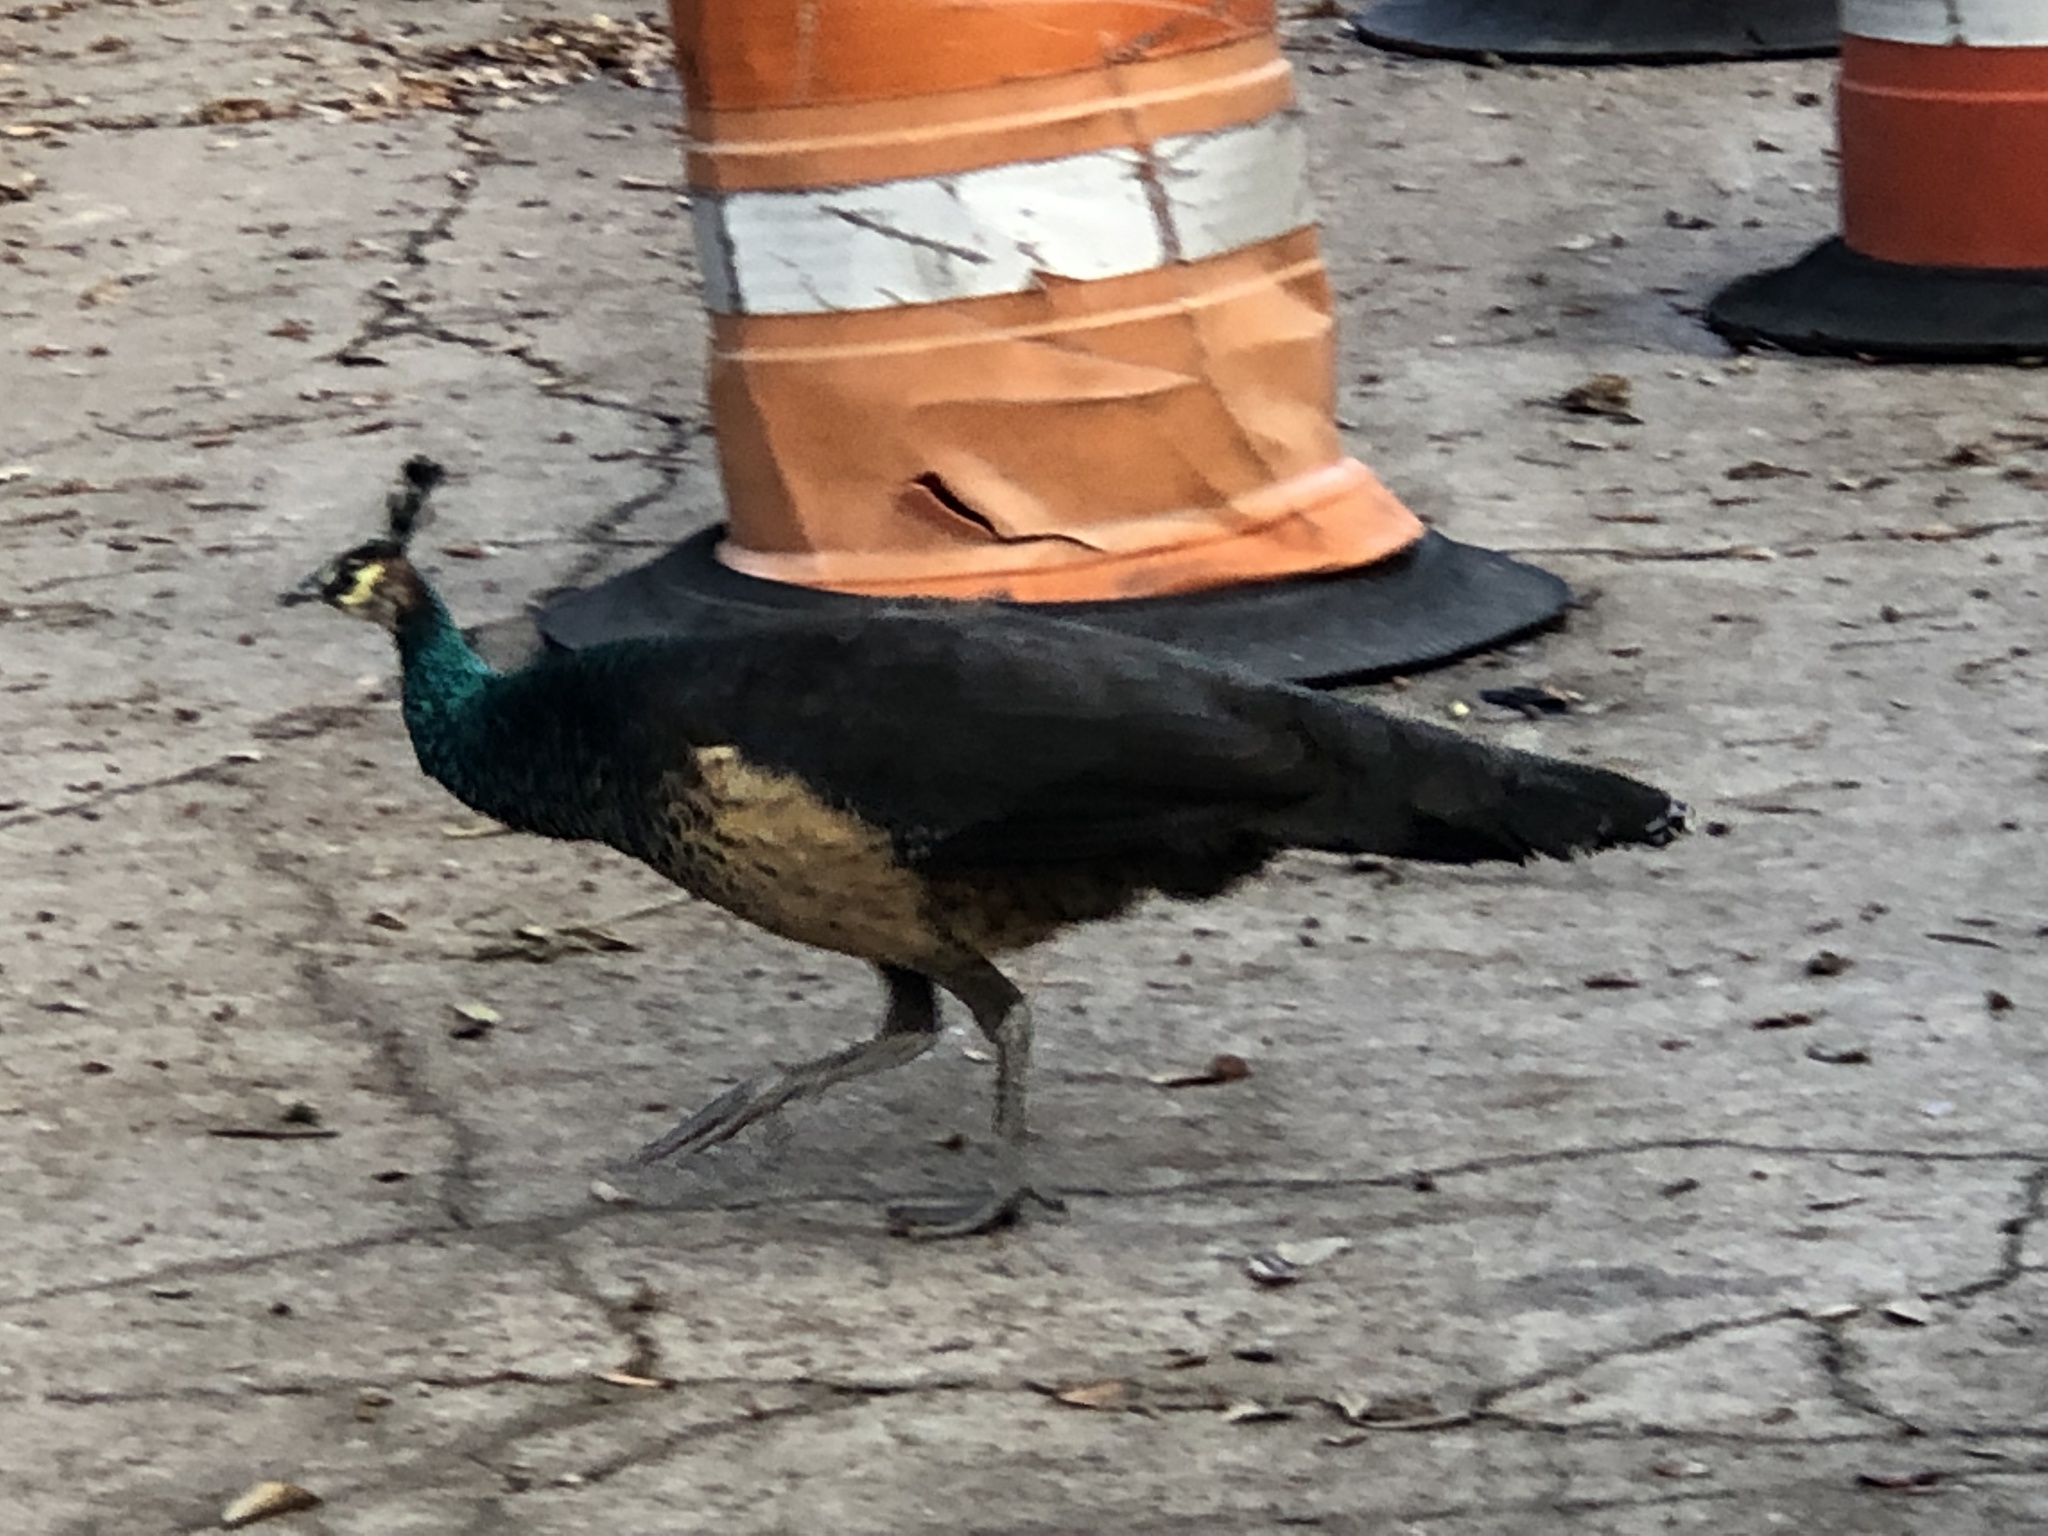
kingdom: Animalia
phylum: Chordata
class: Aves
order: Galliformes
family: Phasianidae
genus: Pavo
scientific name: Pavo
